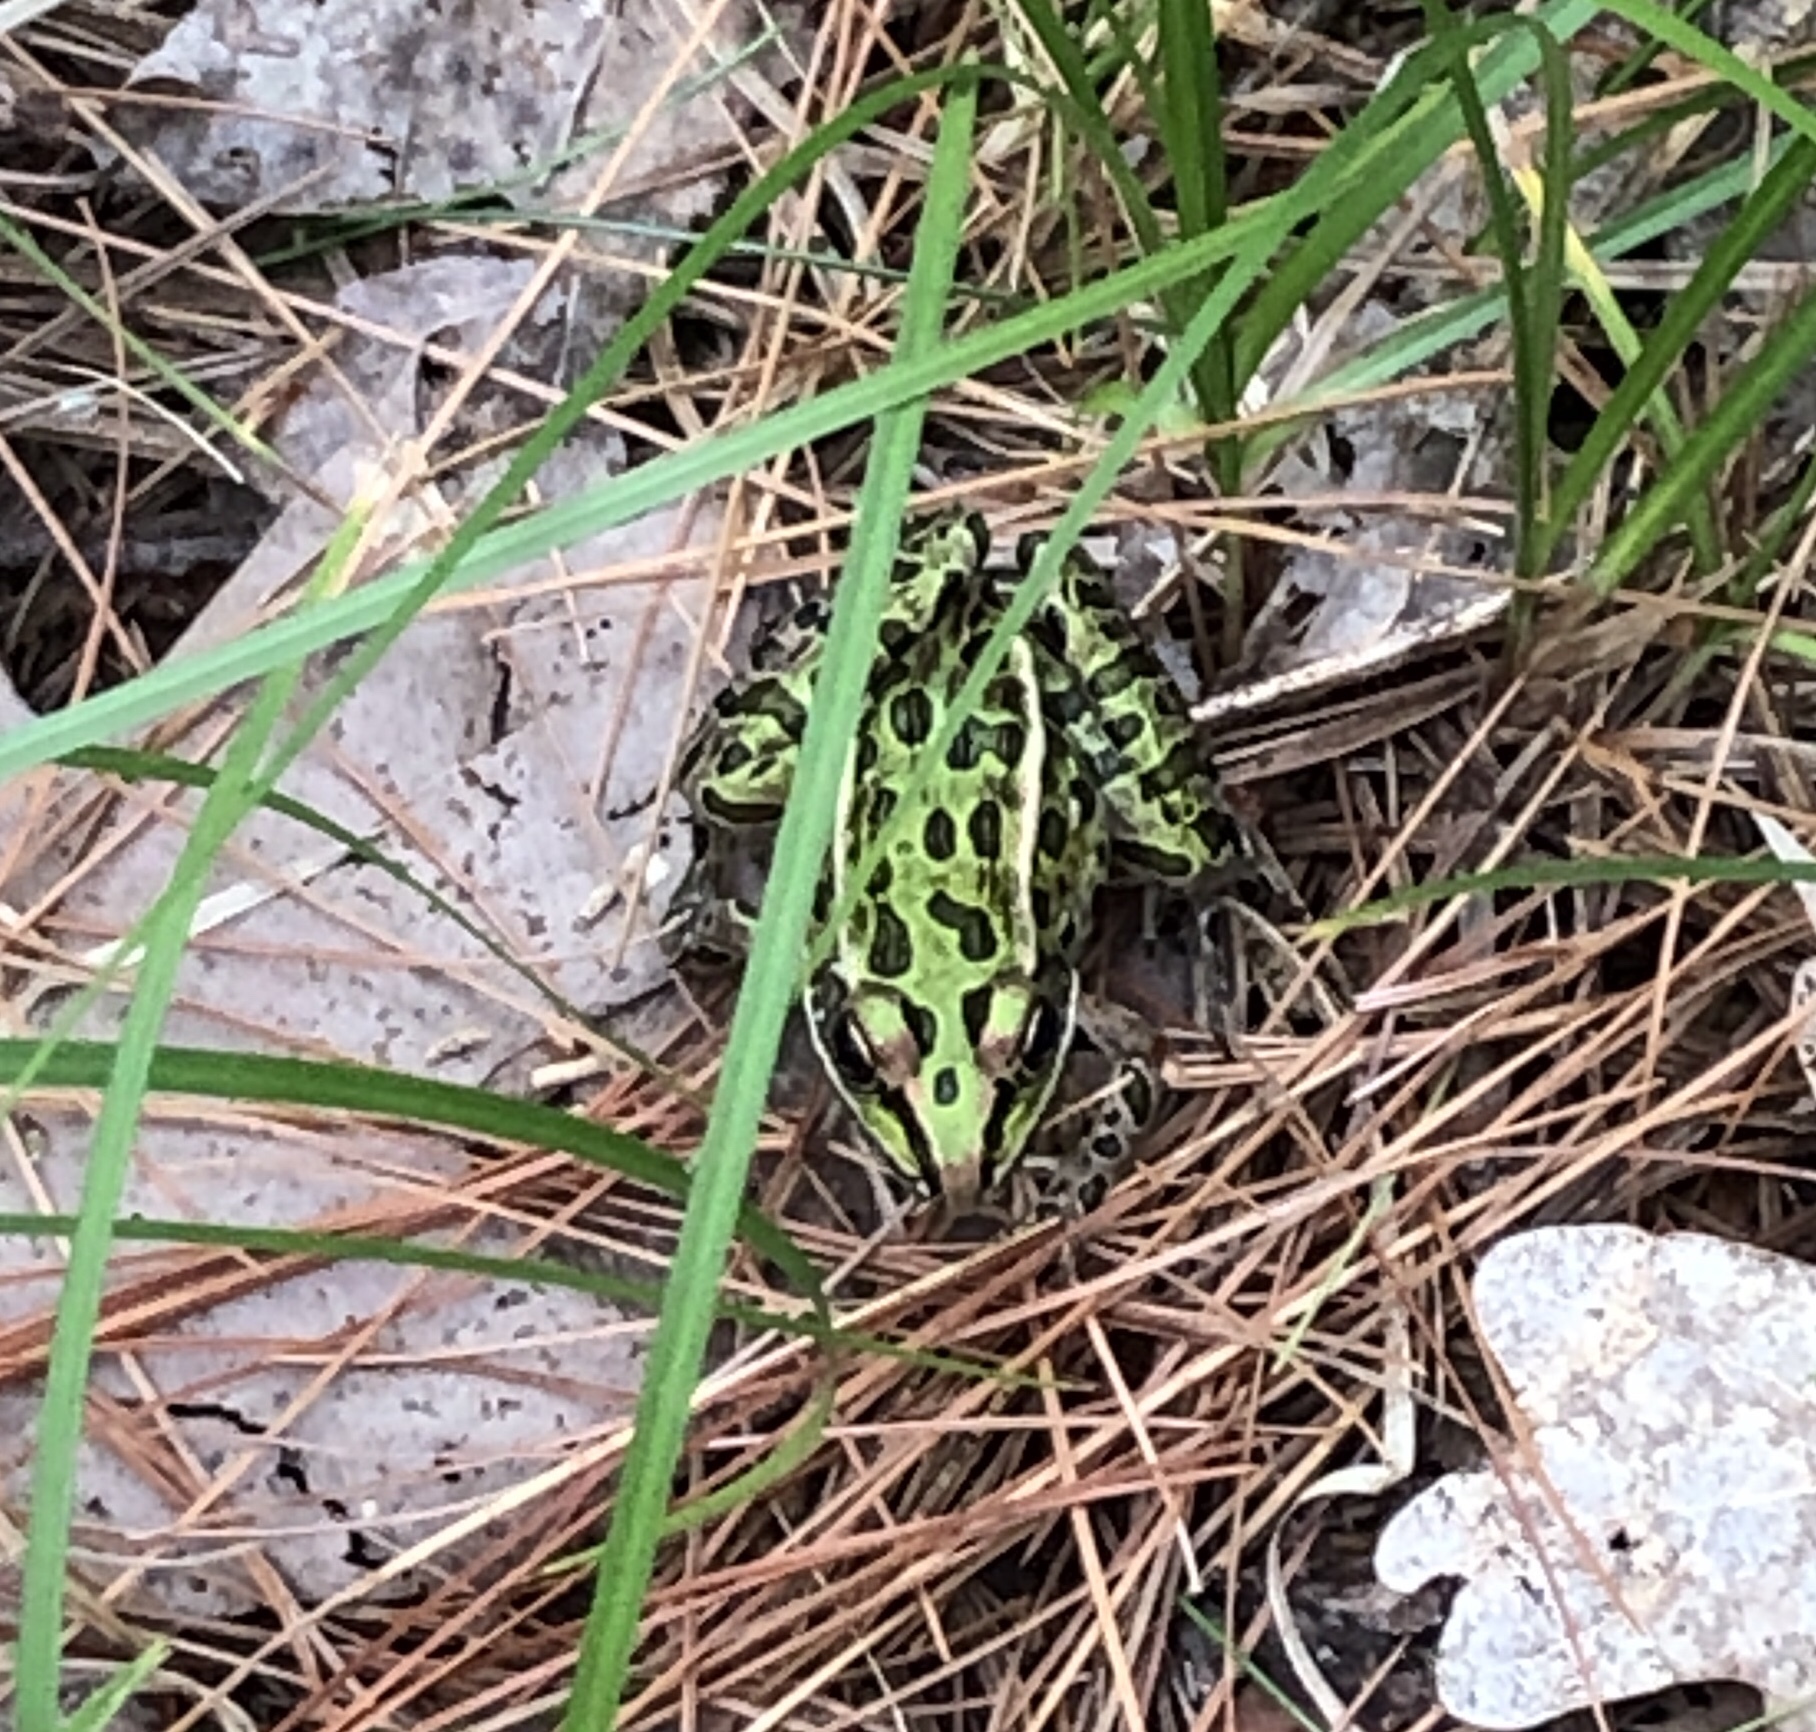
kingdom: Animalia
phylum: Chordata
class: Amphibia
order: Anura
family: Ranidae
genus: Lithobates
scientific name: Lithobates pipiens
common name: Northern leopard frog
